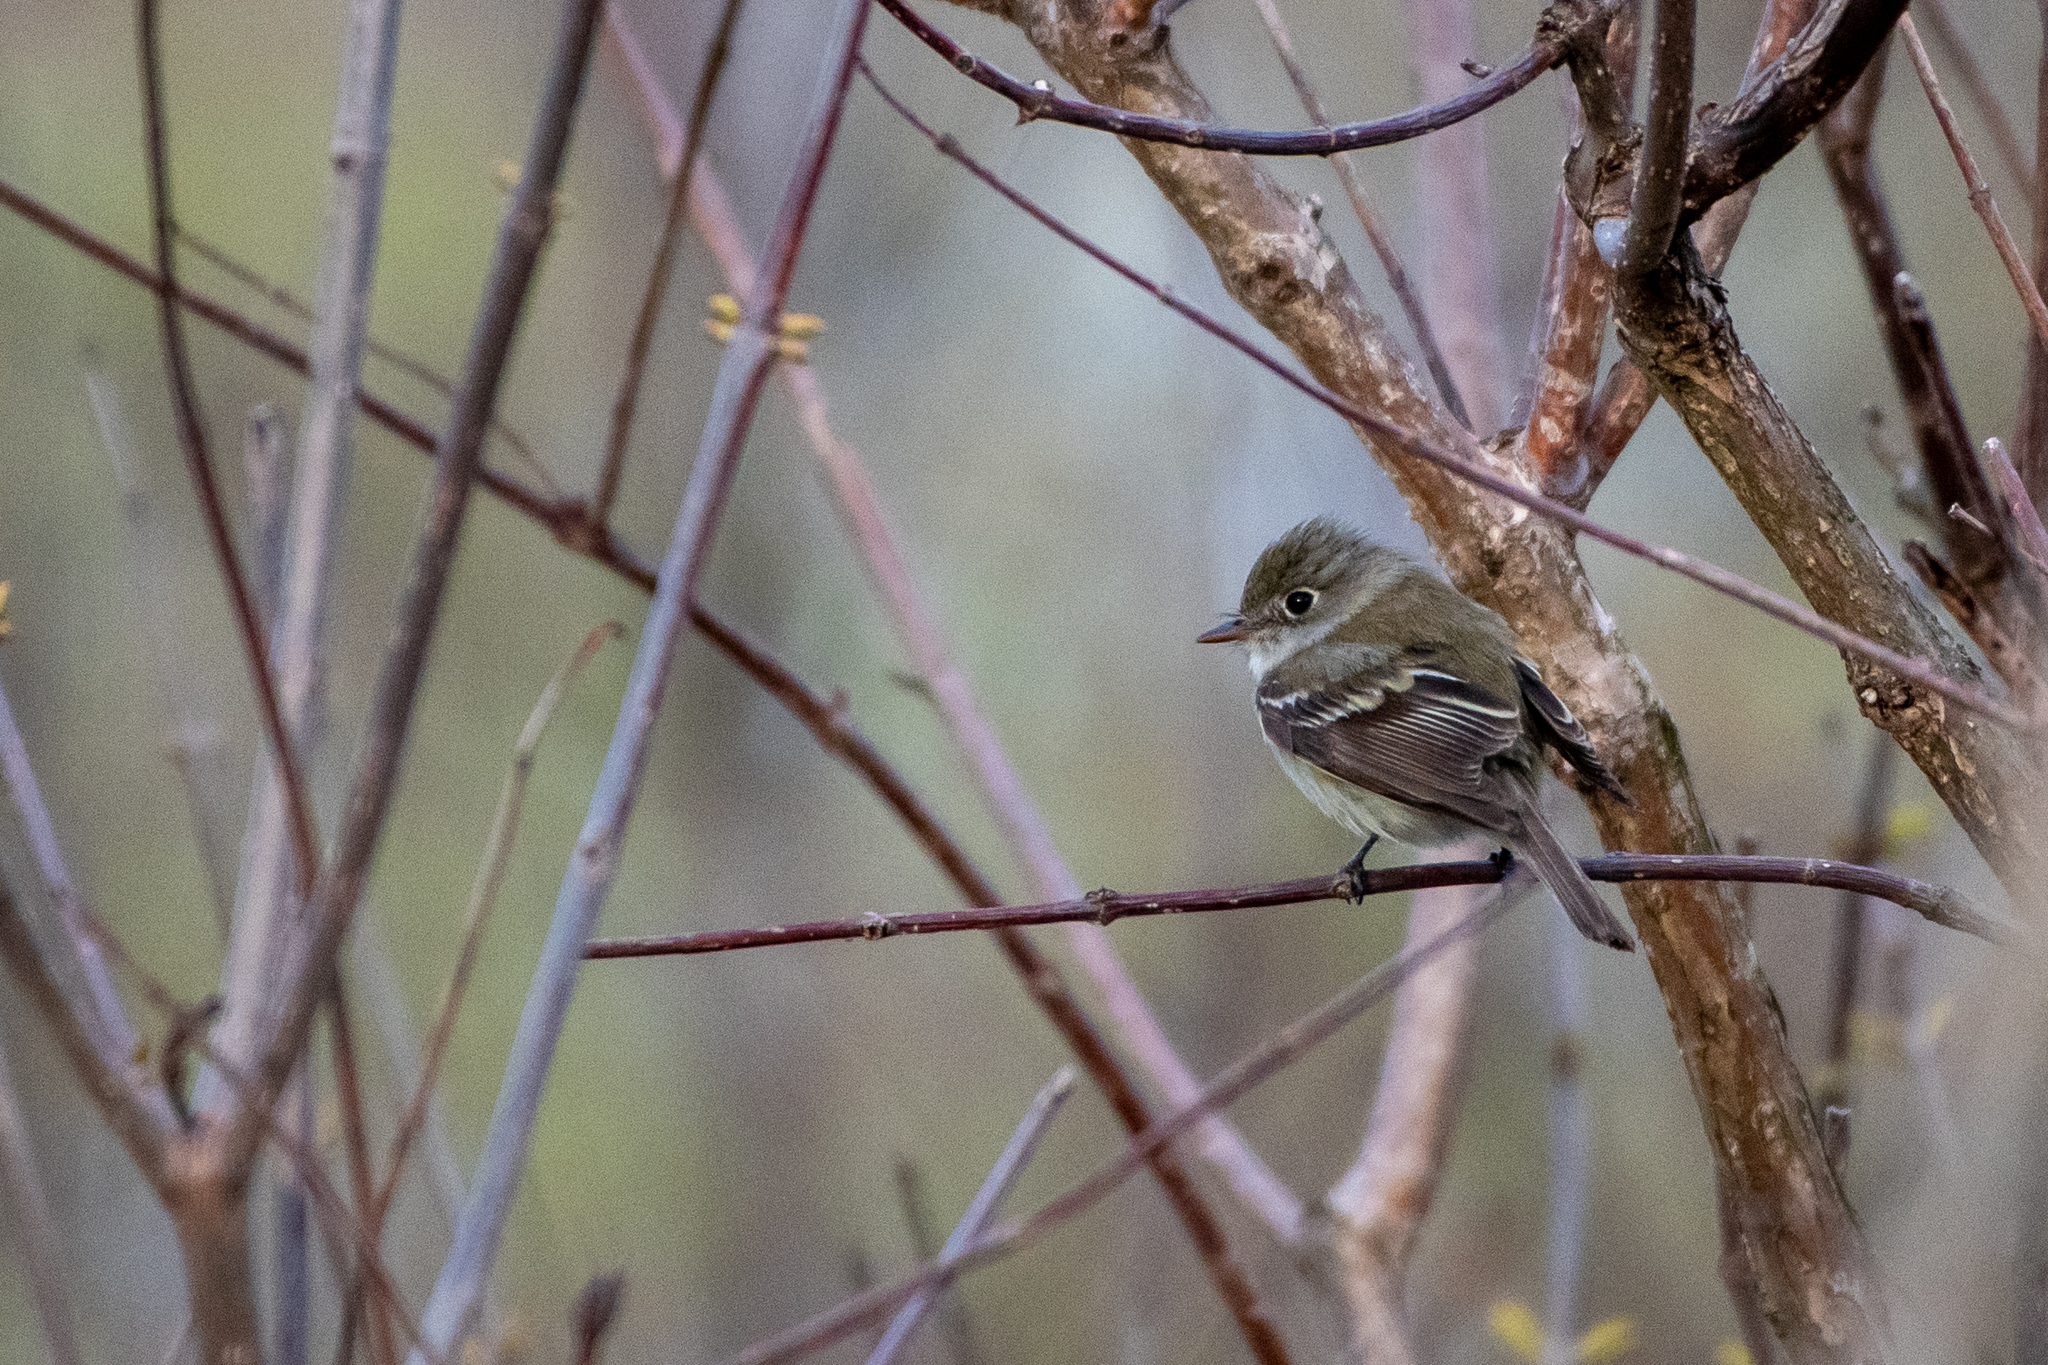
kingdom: Animalia
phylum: Chordata
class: Aves
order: Passeriformes
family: Tyrannidae
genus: Empidonax
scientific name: Empidonax minimus
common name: Least flycatcher
